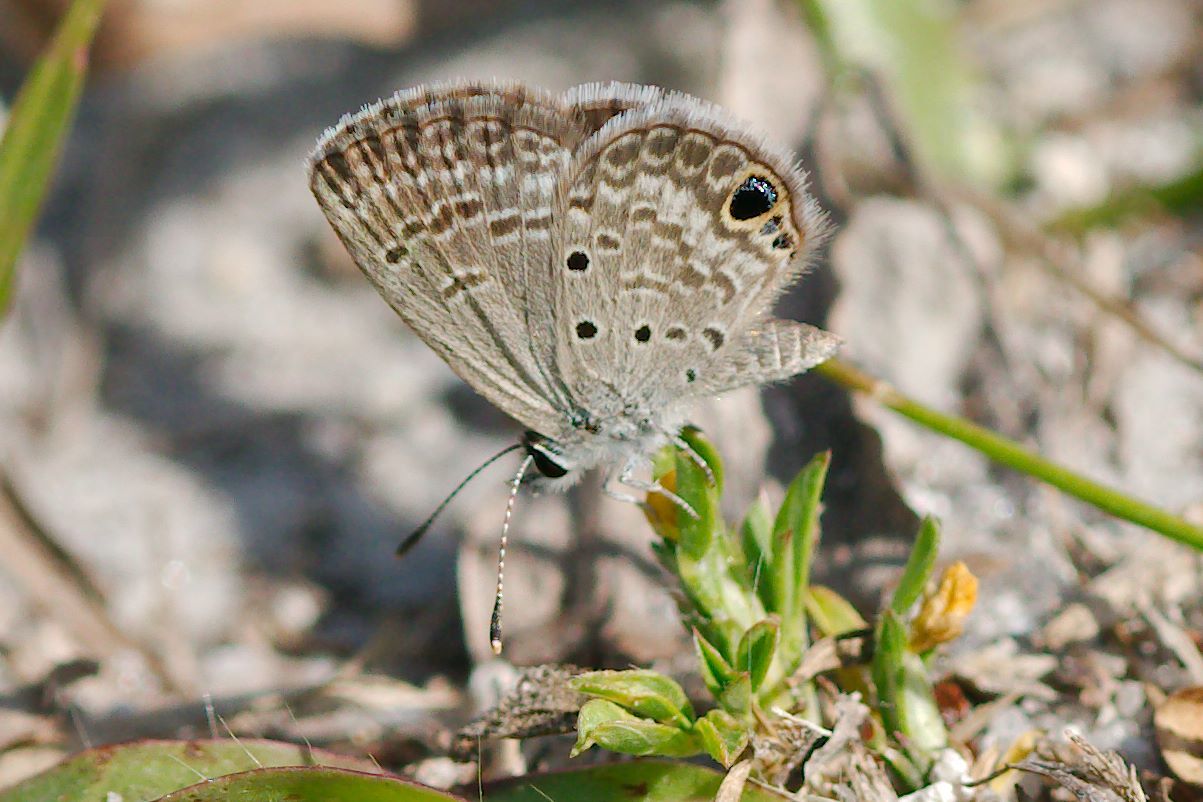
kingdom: Animalia
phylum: Arthropoda
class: Insecta
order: Lepidoptera
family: Lycaenidae
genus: Hemiargus
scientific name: Hemiargus ceraunus
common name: Ceraunus blue
